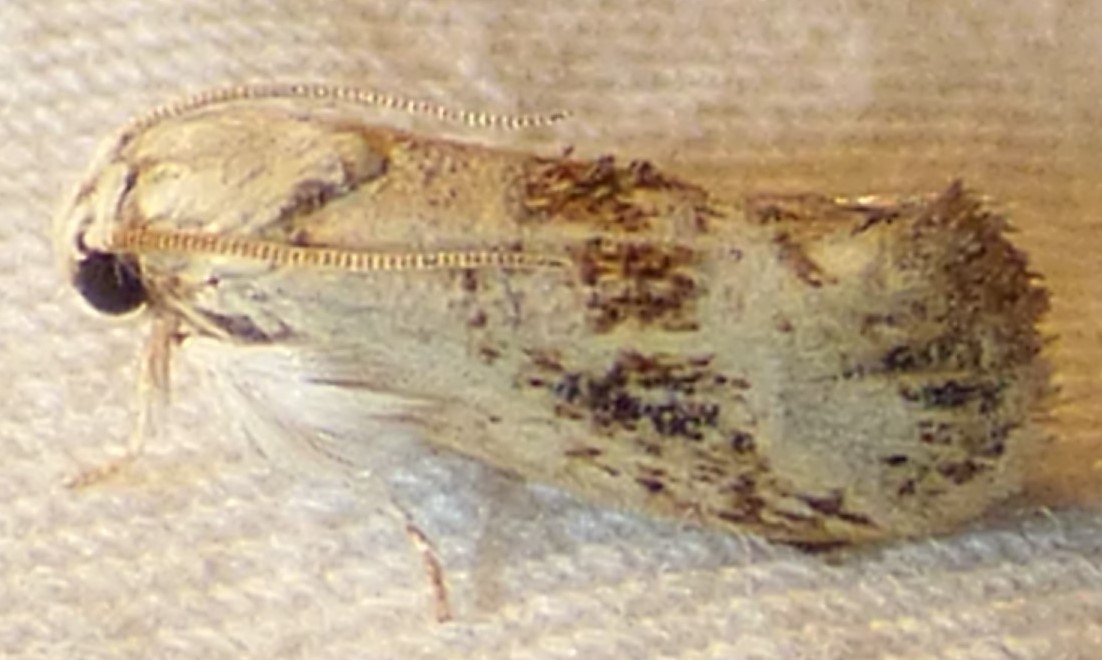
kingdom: Animalia
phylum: Arthropoda
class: Insecta
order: Lepidoptera
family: Tineidae
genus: Acrolophus
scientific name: Acrolophus mycetophagus
